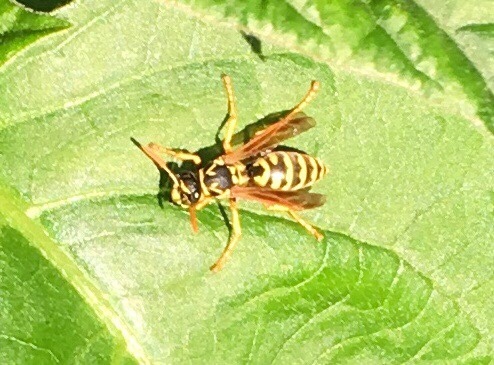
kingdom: Animalia
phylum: Arthropoda
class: Insecta
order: Hymenoptera
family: Eumenidae
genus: Polistes
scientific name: Polistes dominula
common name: Paper wasp
